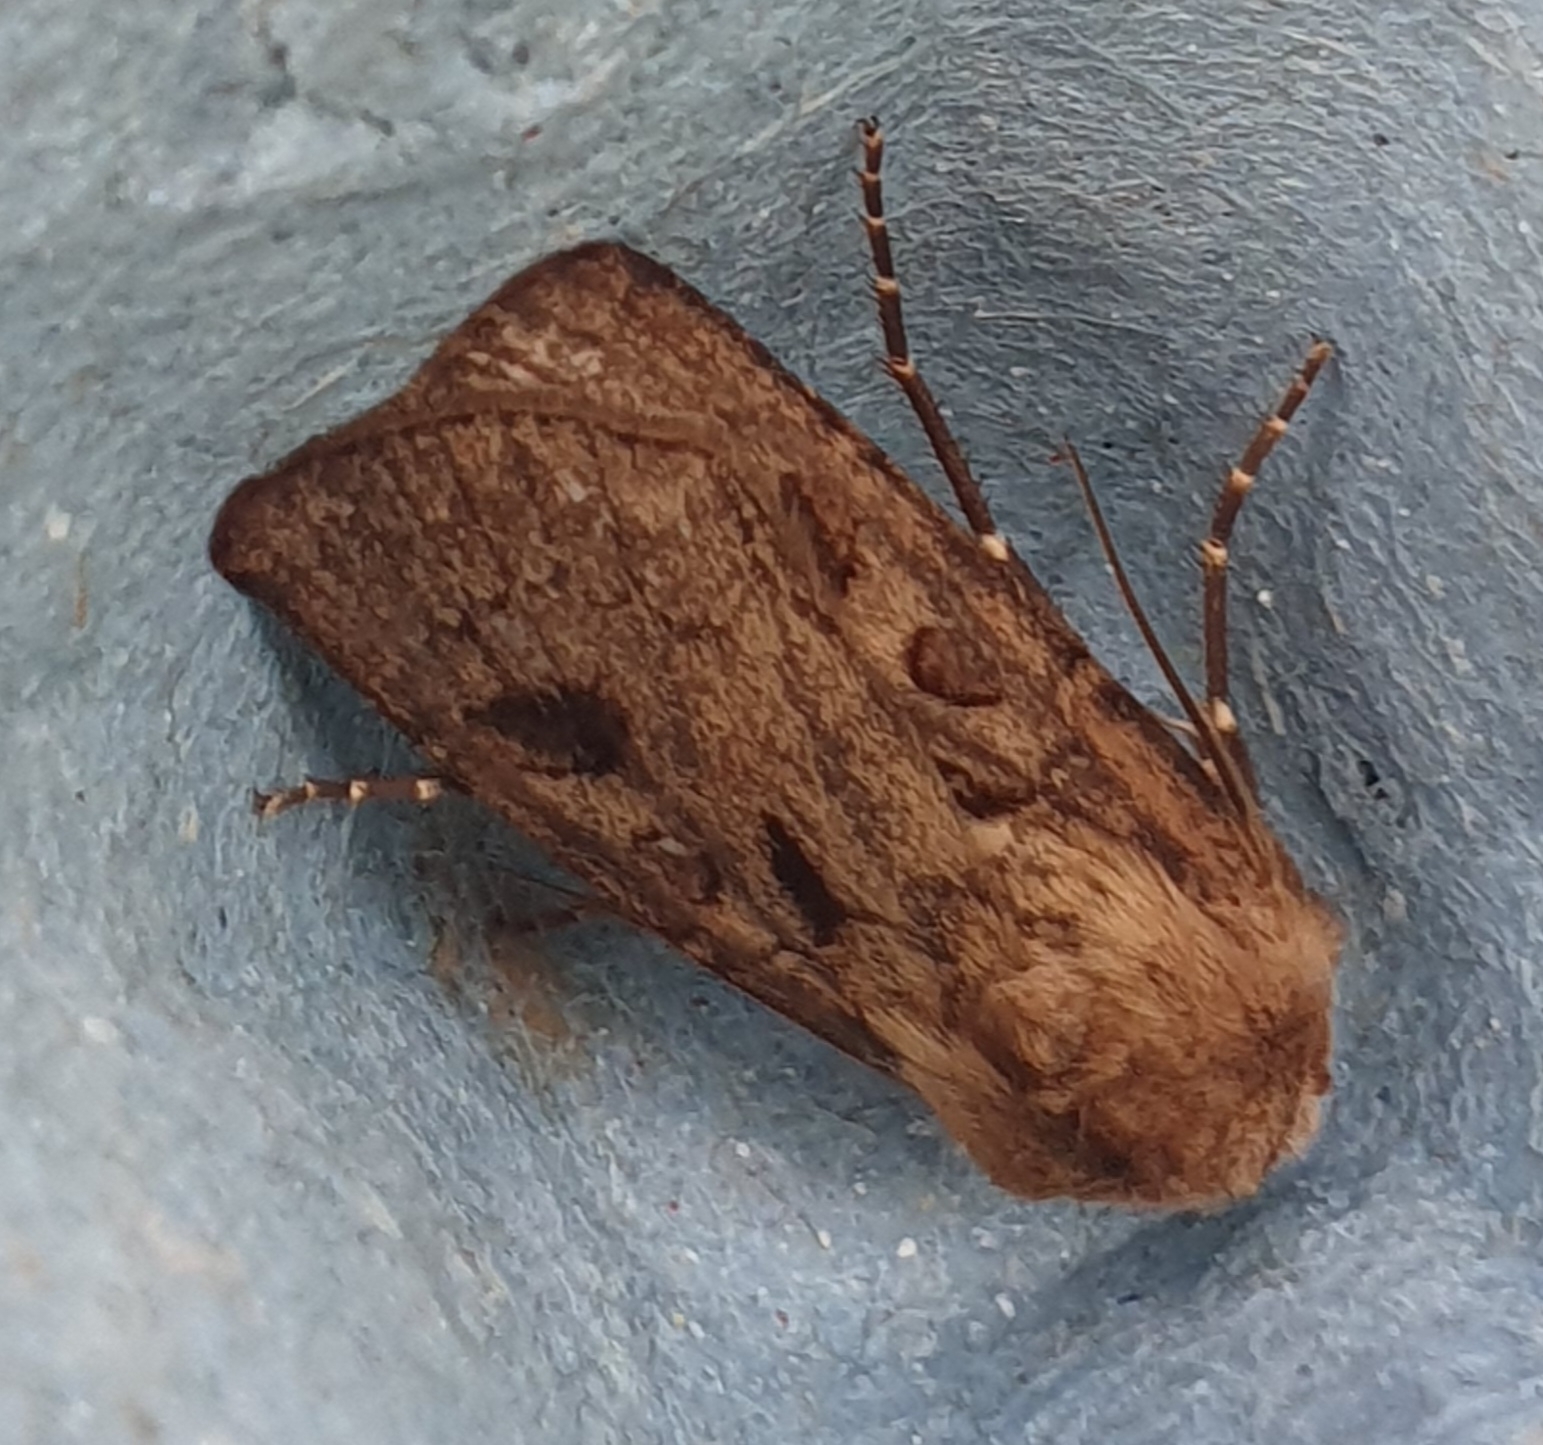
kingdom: Animalia
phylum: Arthropoda
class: Insecta
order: Lepidoptera
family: Noctuidae
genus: Agrotis
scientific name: Agrotis exclamationis
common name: Heart and dart
